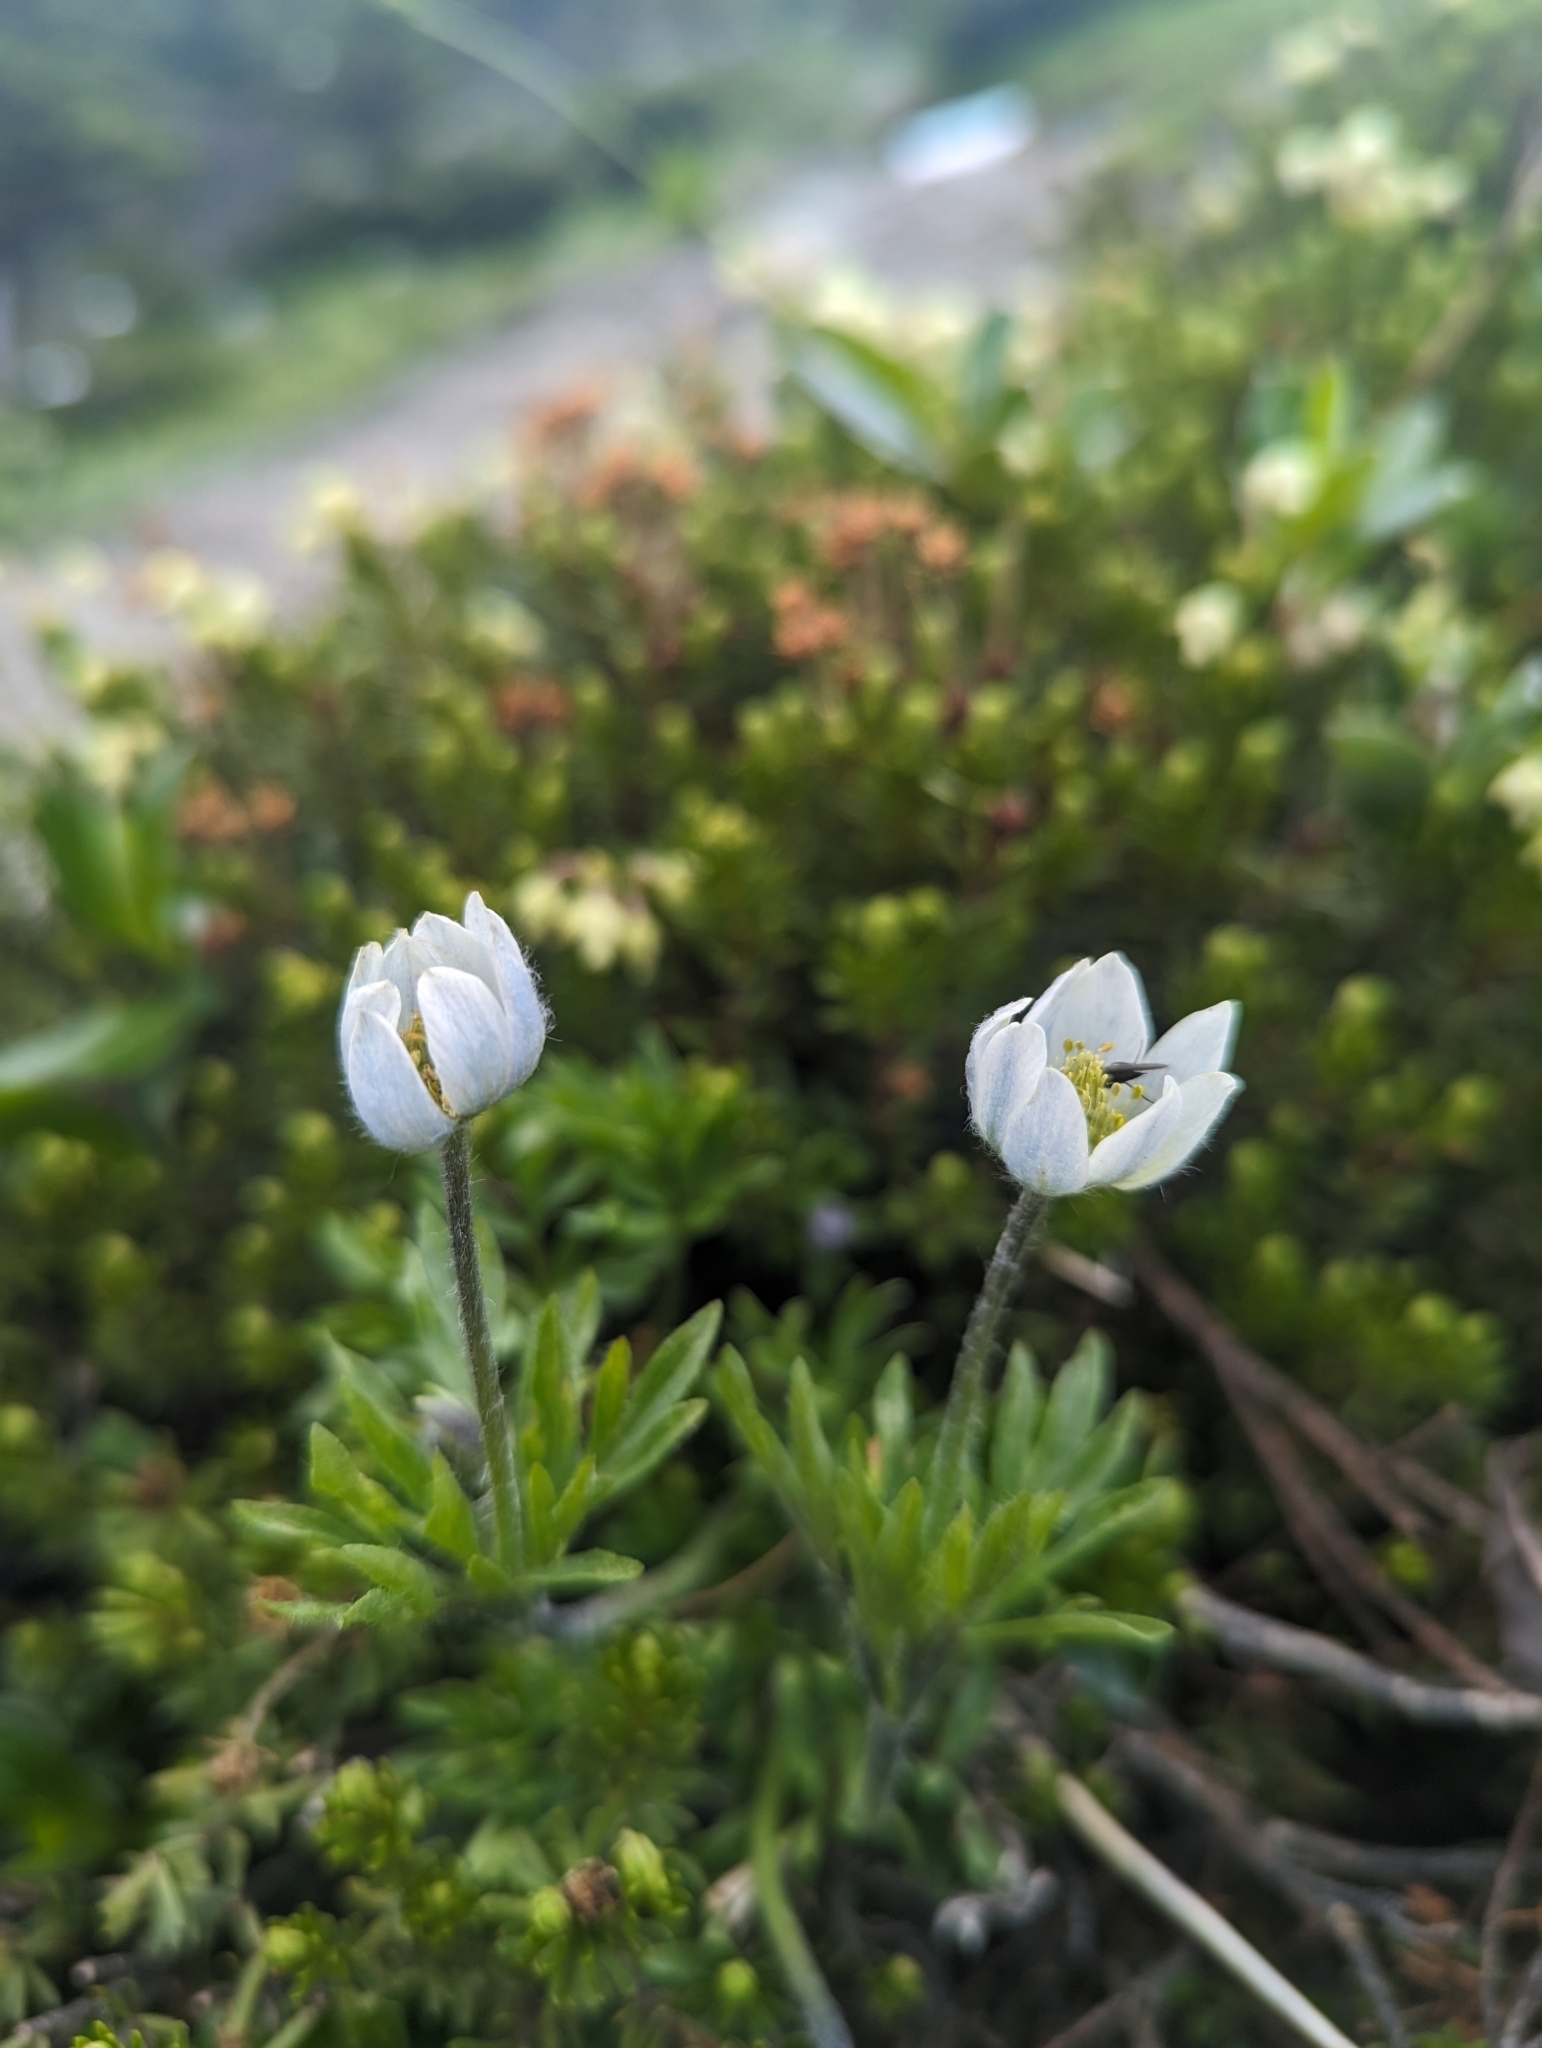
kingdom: Plantae
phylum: Tracheophyta
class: Magnoliopsida
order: Ranunculales
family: Ranunculaceae
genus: Anemone
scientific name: Anemone drummondii
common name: Drummond's anemone
